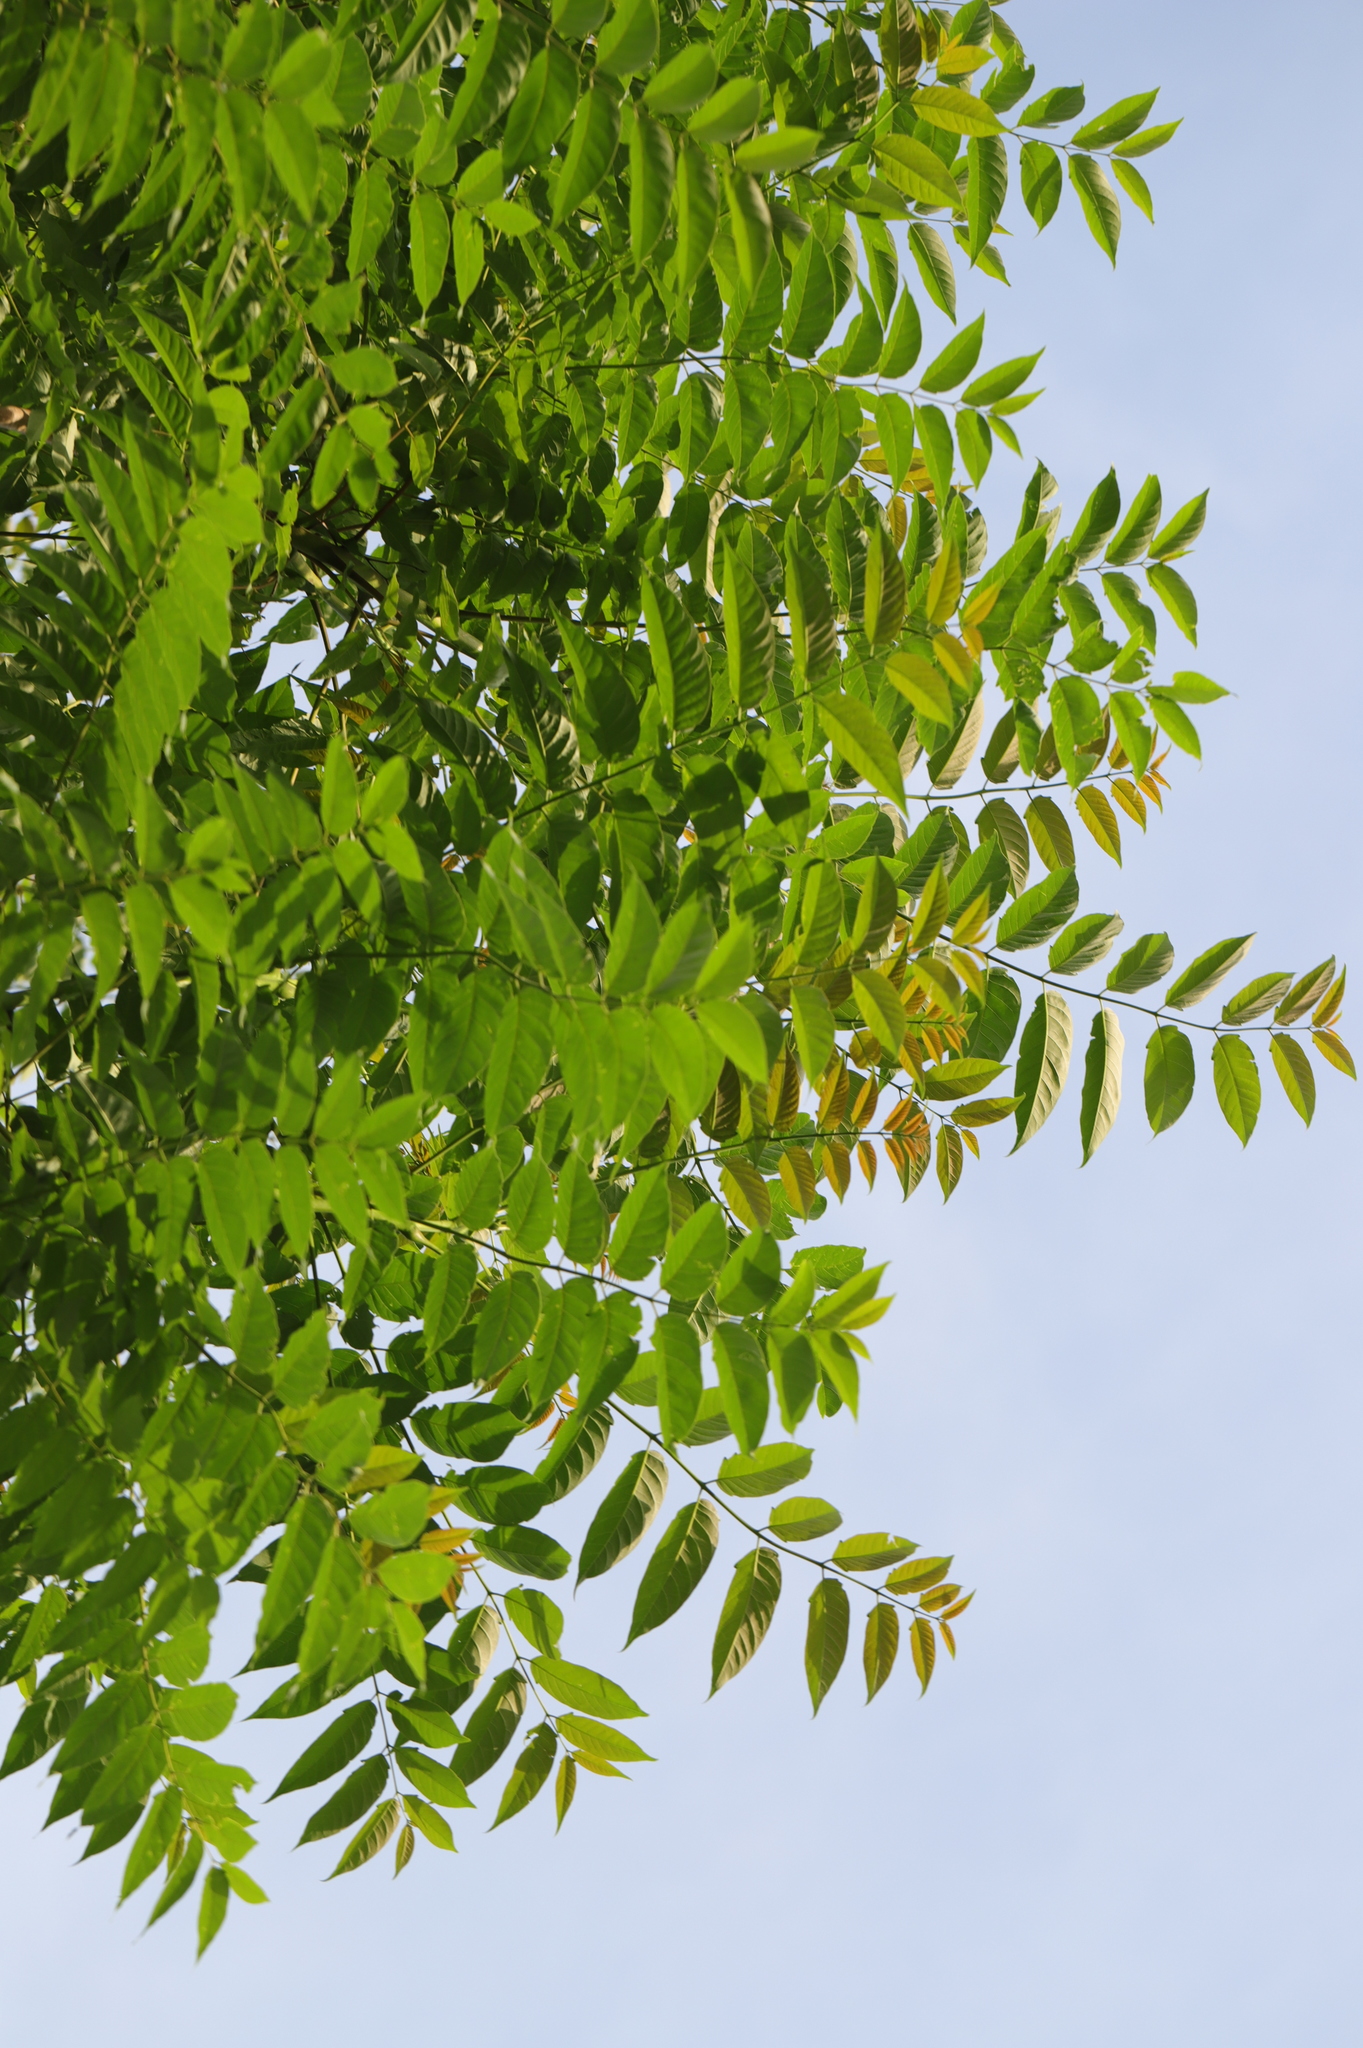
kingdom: Plantae
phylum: Tracheophyta
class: Magnoliopsida
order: Sapindales
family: Simaroubaceae
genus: Ailanthus
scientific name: Ailanthus altissima
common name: Tree-of-heaven
